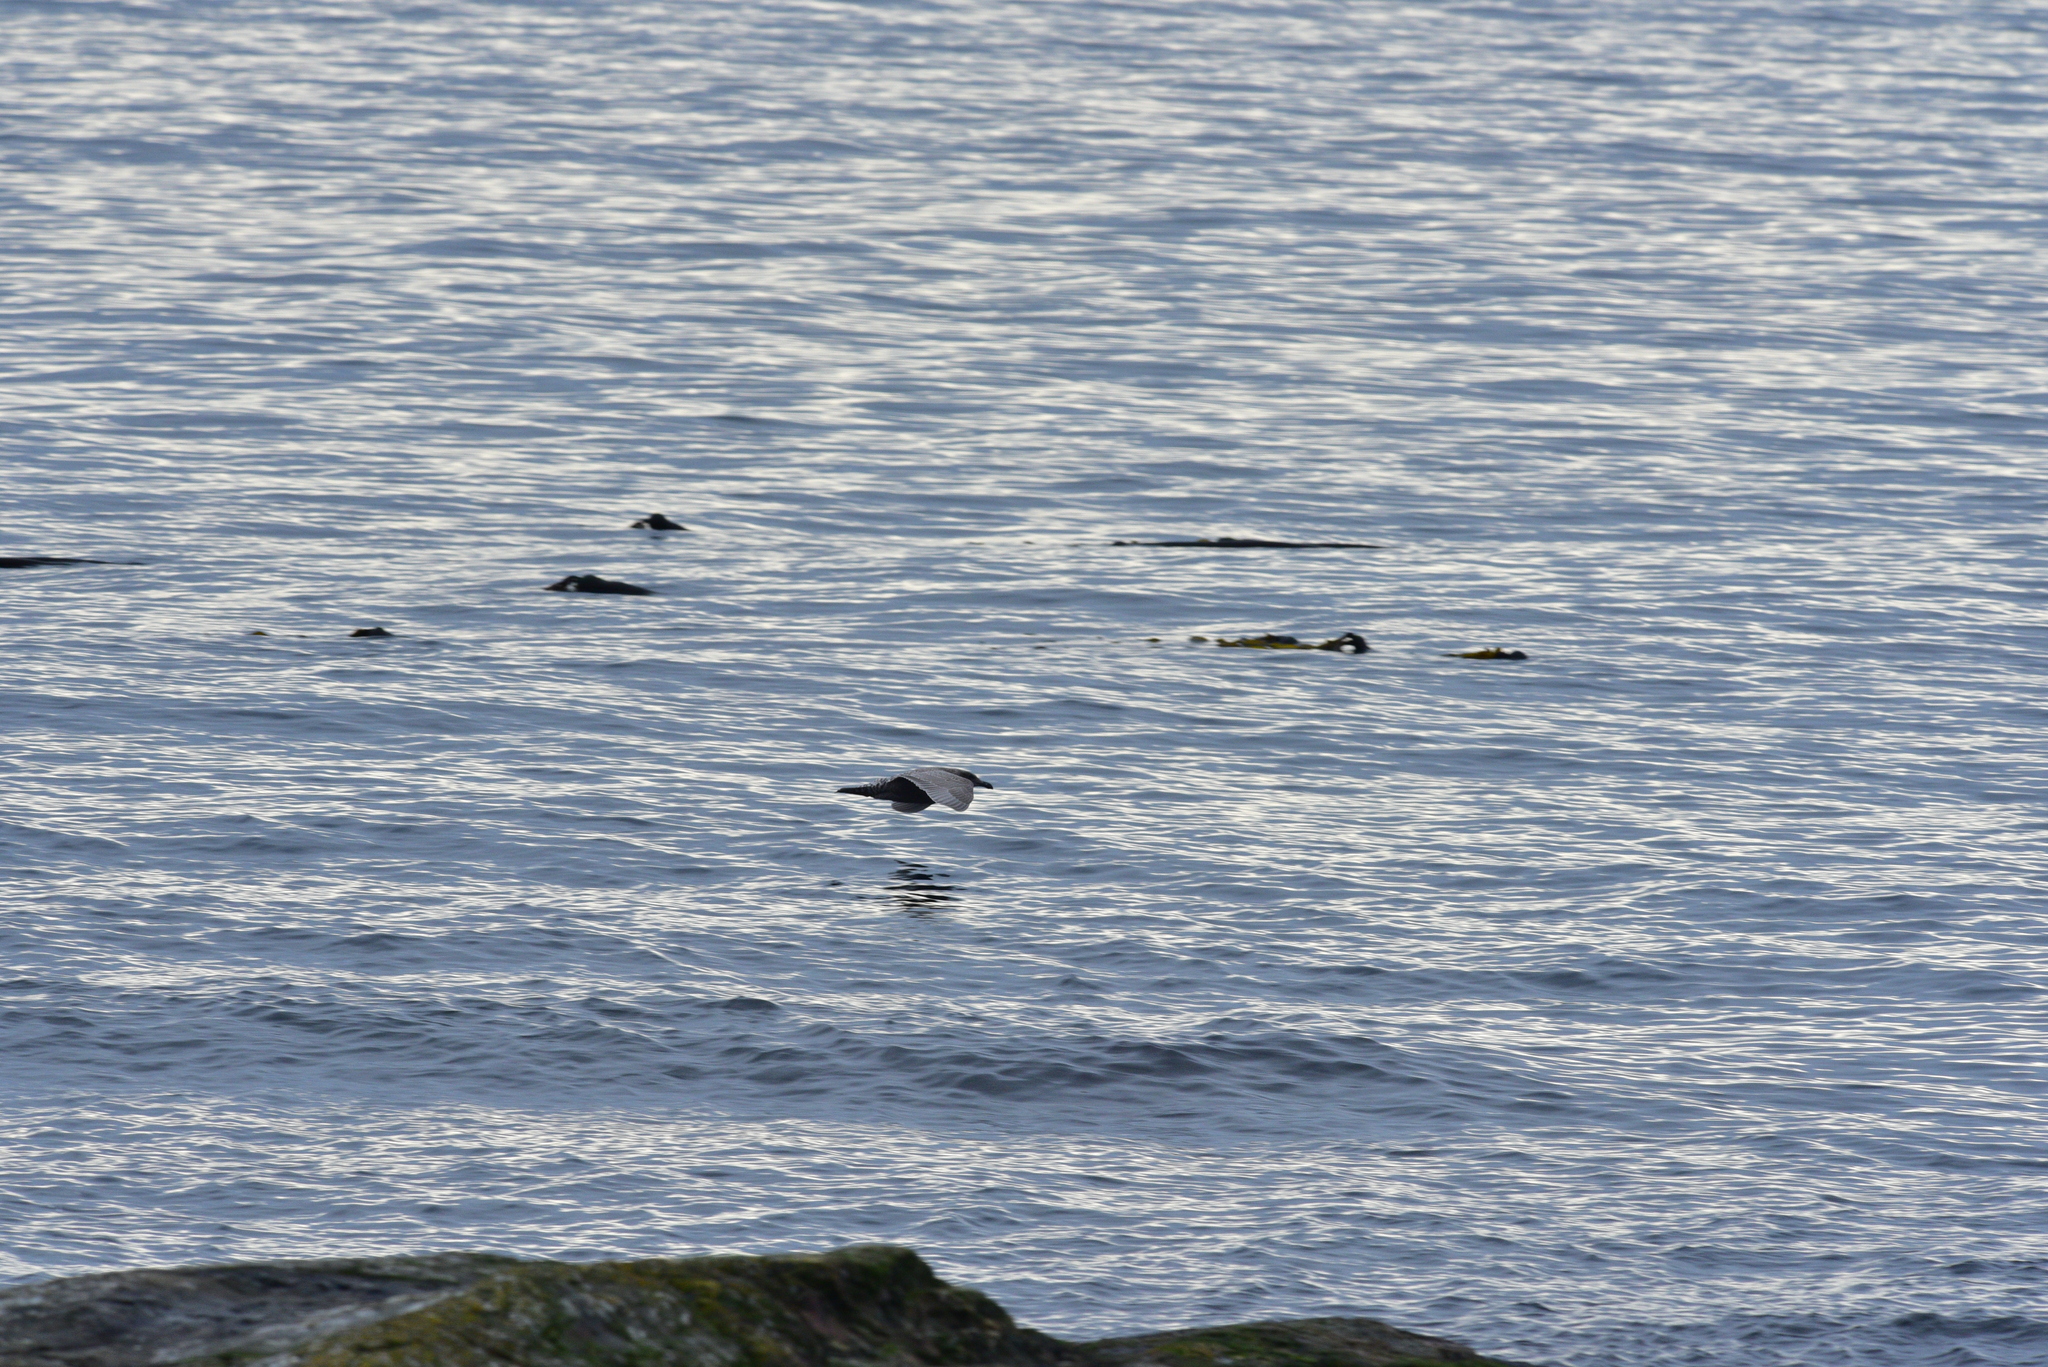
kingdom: Animalia
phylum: Chordata
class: Aves
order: Charadriiformes
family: Laridae
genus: Larus
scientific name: Larus
